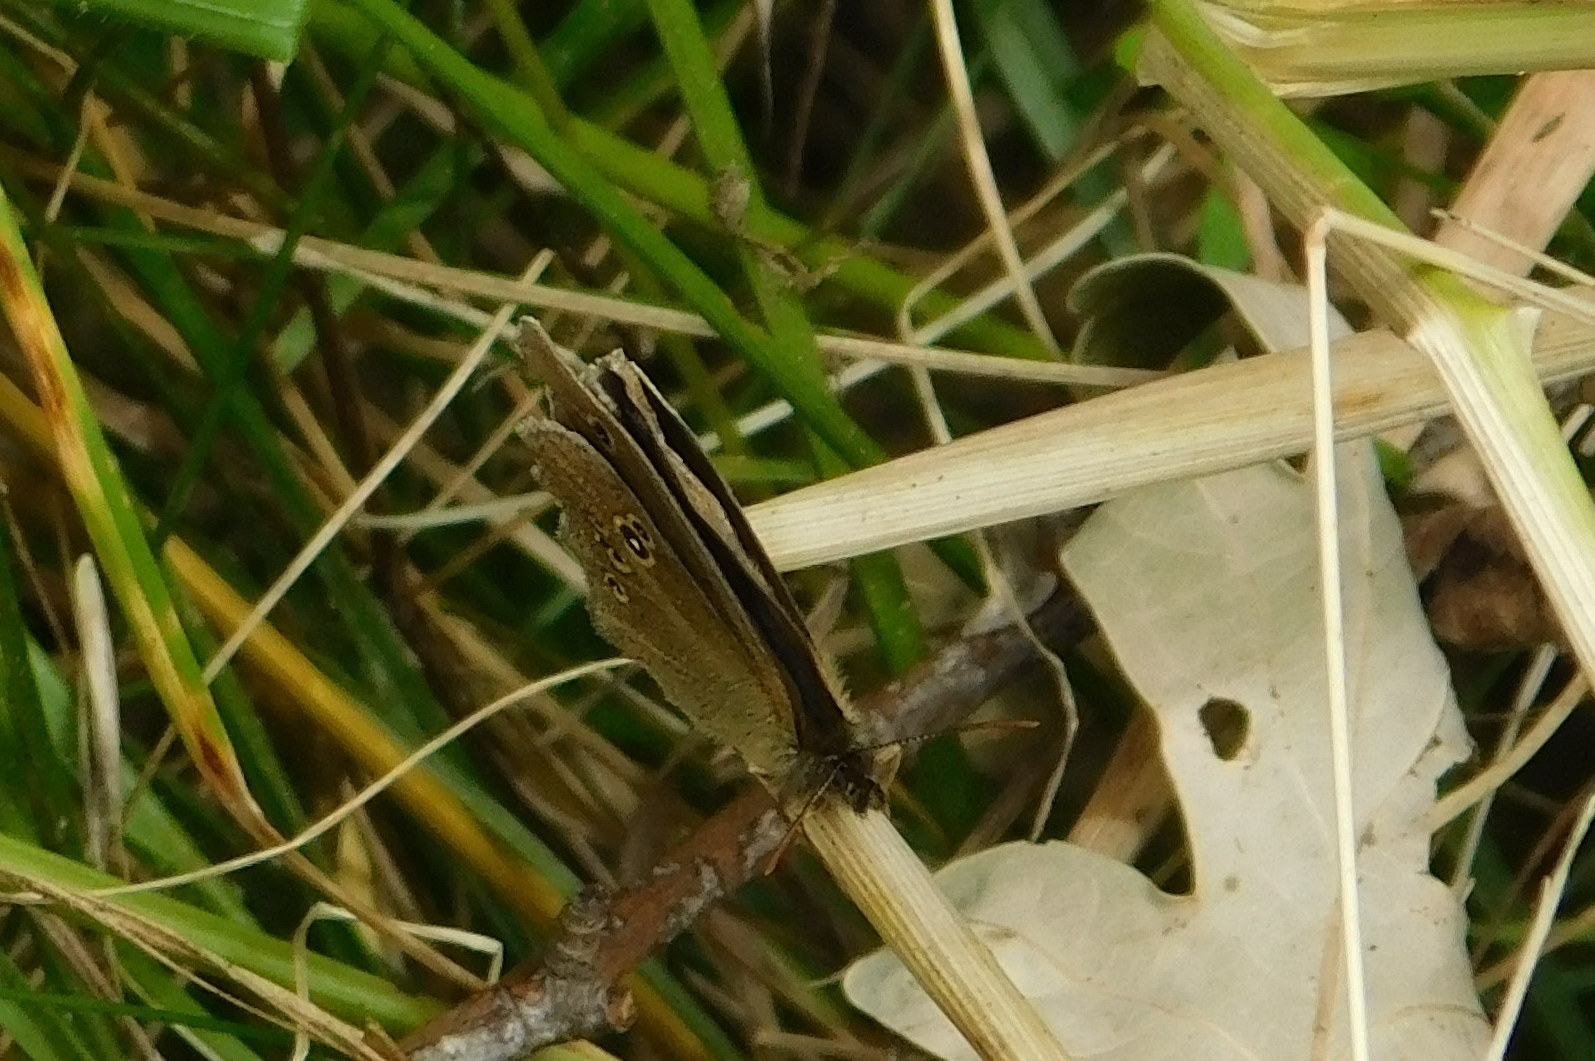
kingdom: Animalia
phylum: Arthropoda
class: Insecta
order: Lepidoptera
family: Nymphalidae
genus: Aphantopus
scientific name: Aphantopus hyperantus
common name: Ringlet
